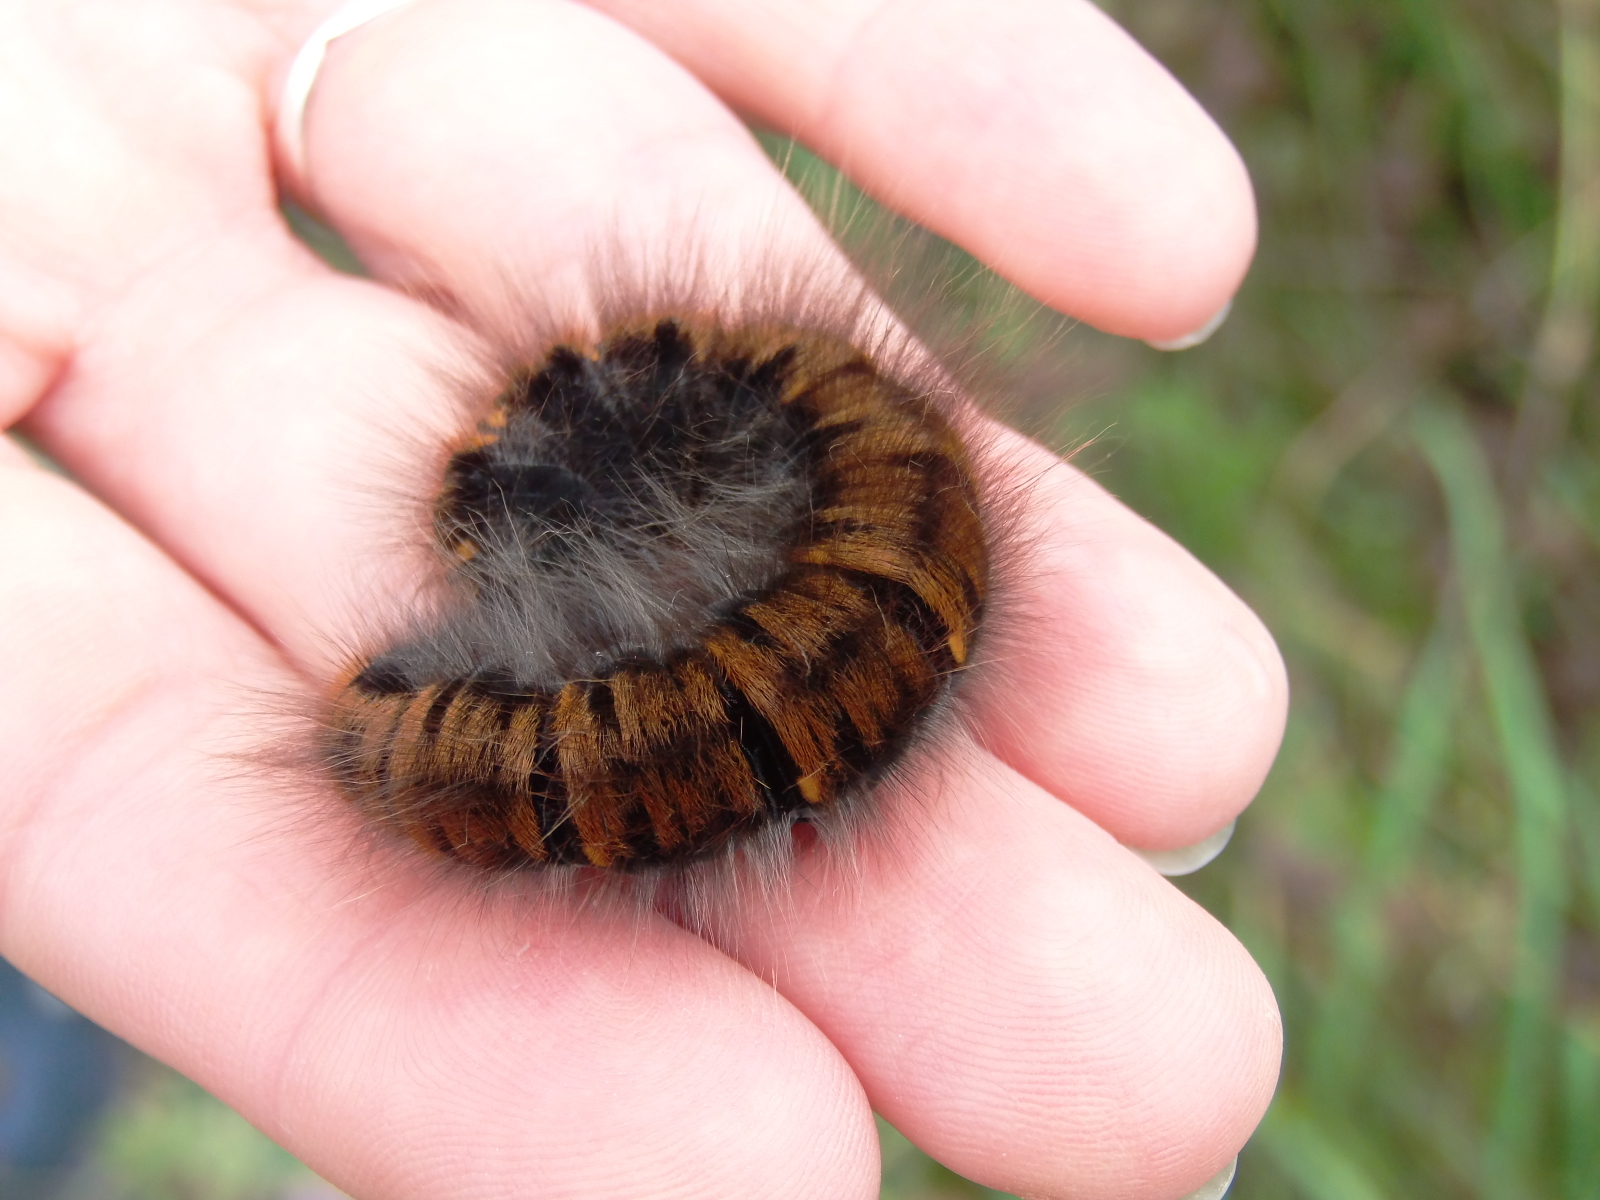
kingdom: Animalia
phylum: Arthropoda
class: Insecta
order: Lepidoptera
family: Lasiocampidae
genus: Macrothylacia
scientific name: Macrothylacia rubi
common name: Fox moth
